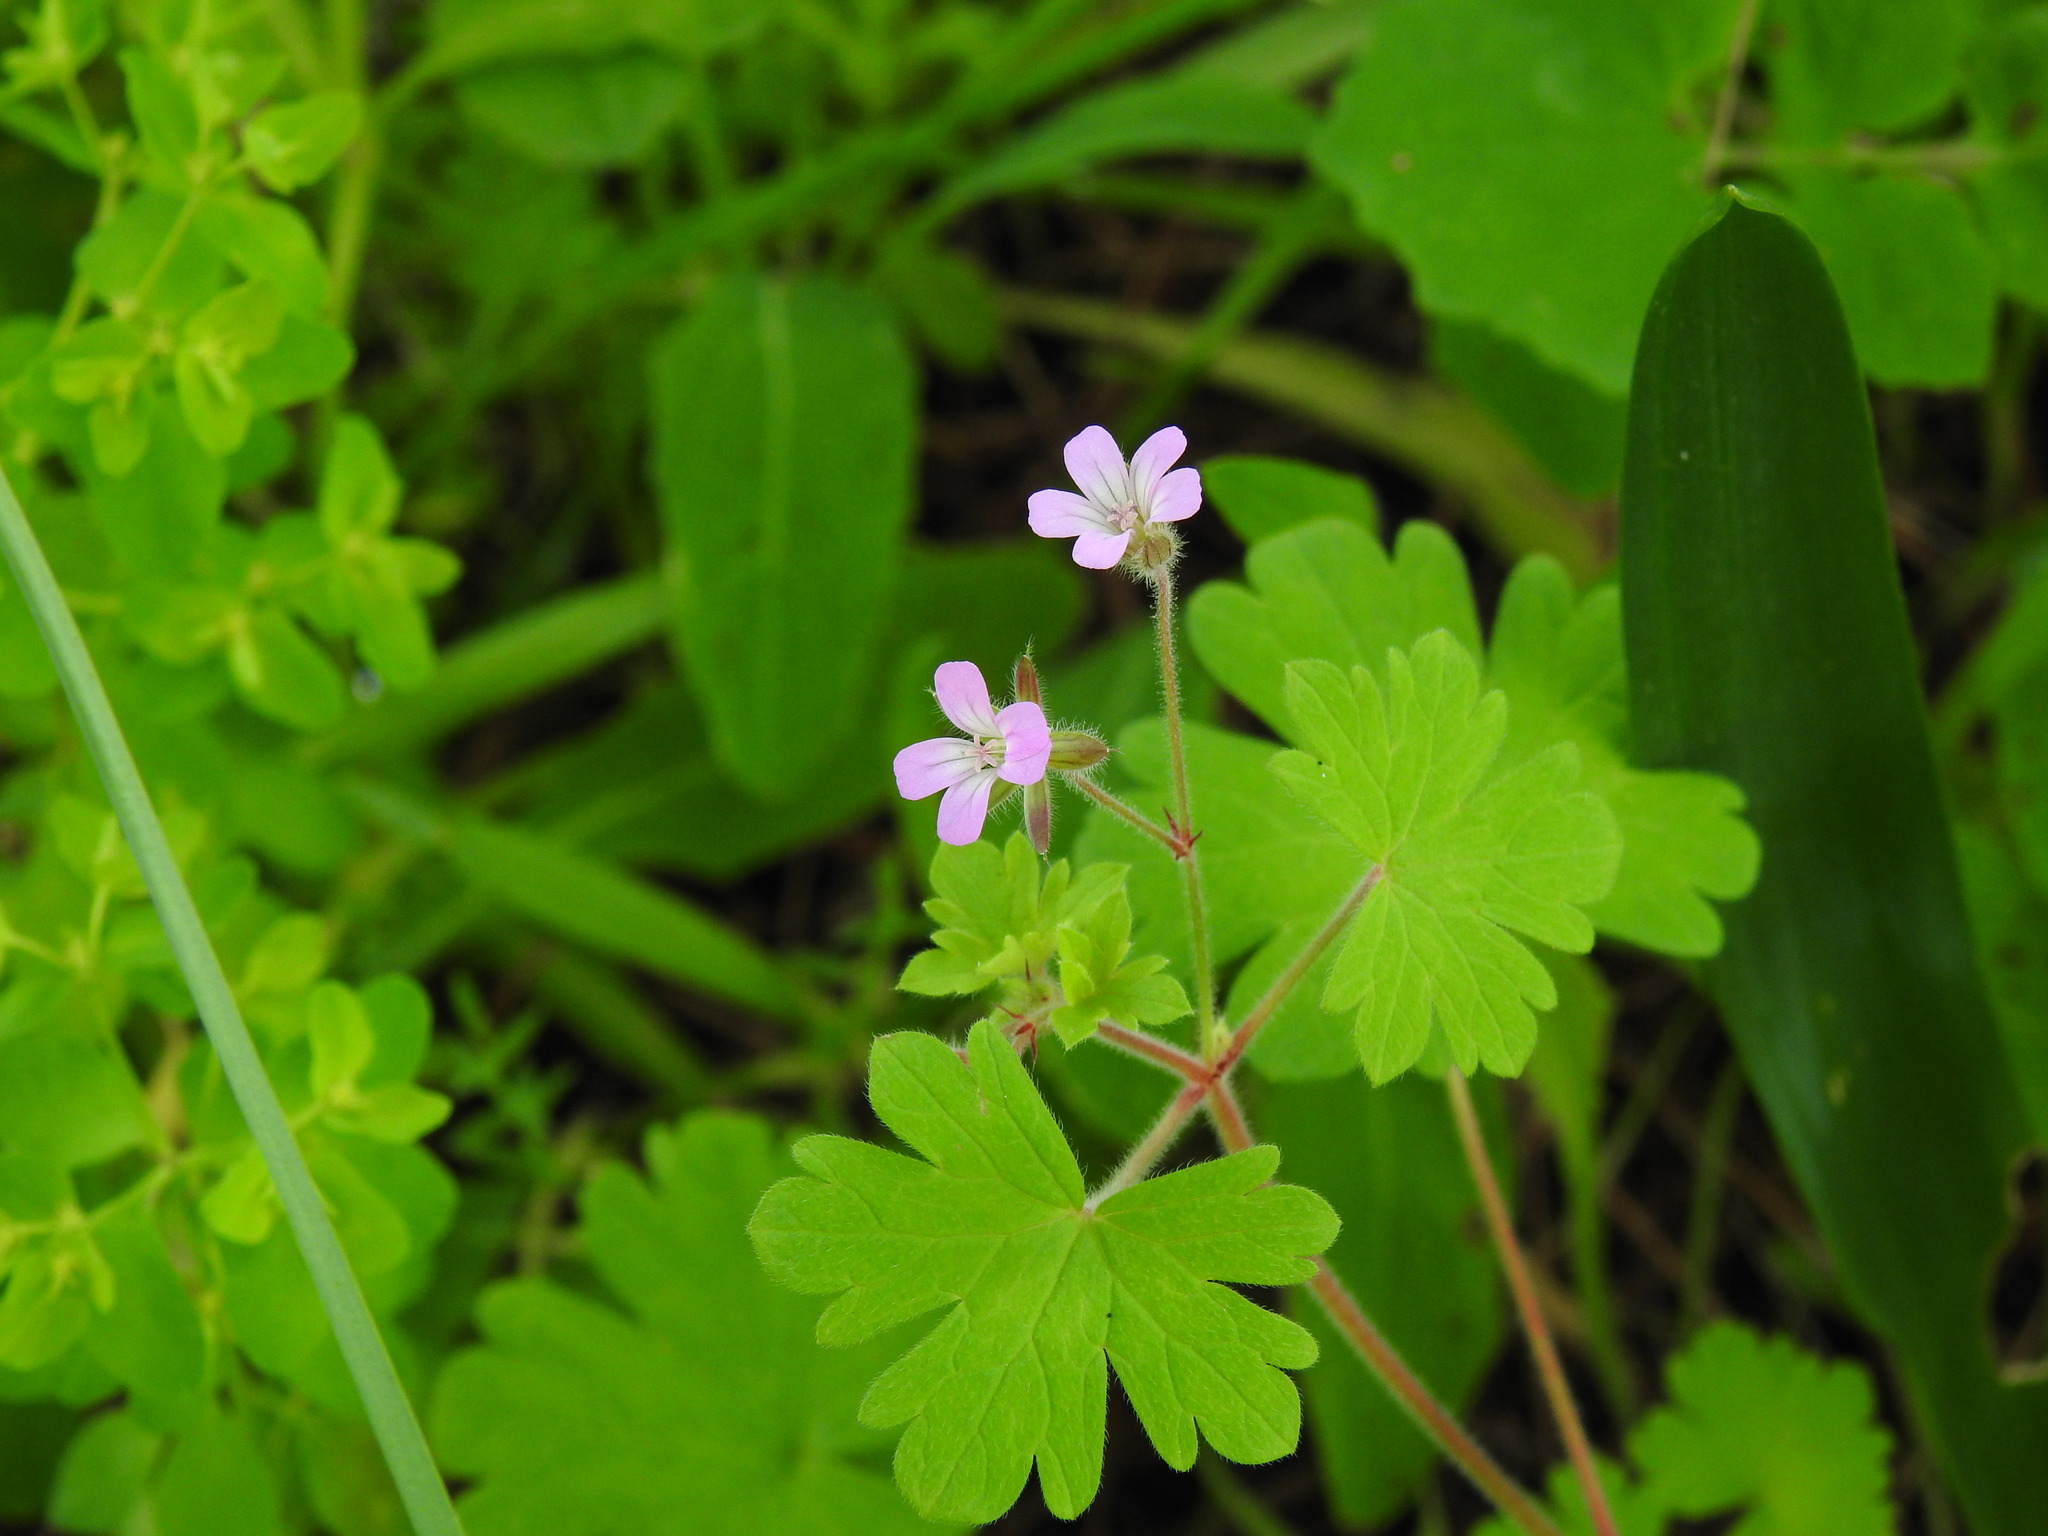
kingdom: Plantae
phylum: Tracheophyta
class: Magnoliopsida
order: Geraniales
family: Geraniaceae
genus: Geranium
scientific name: Geranium rotundifolium
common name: Round-leaved crane's-bill
